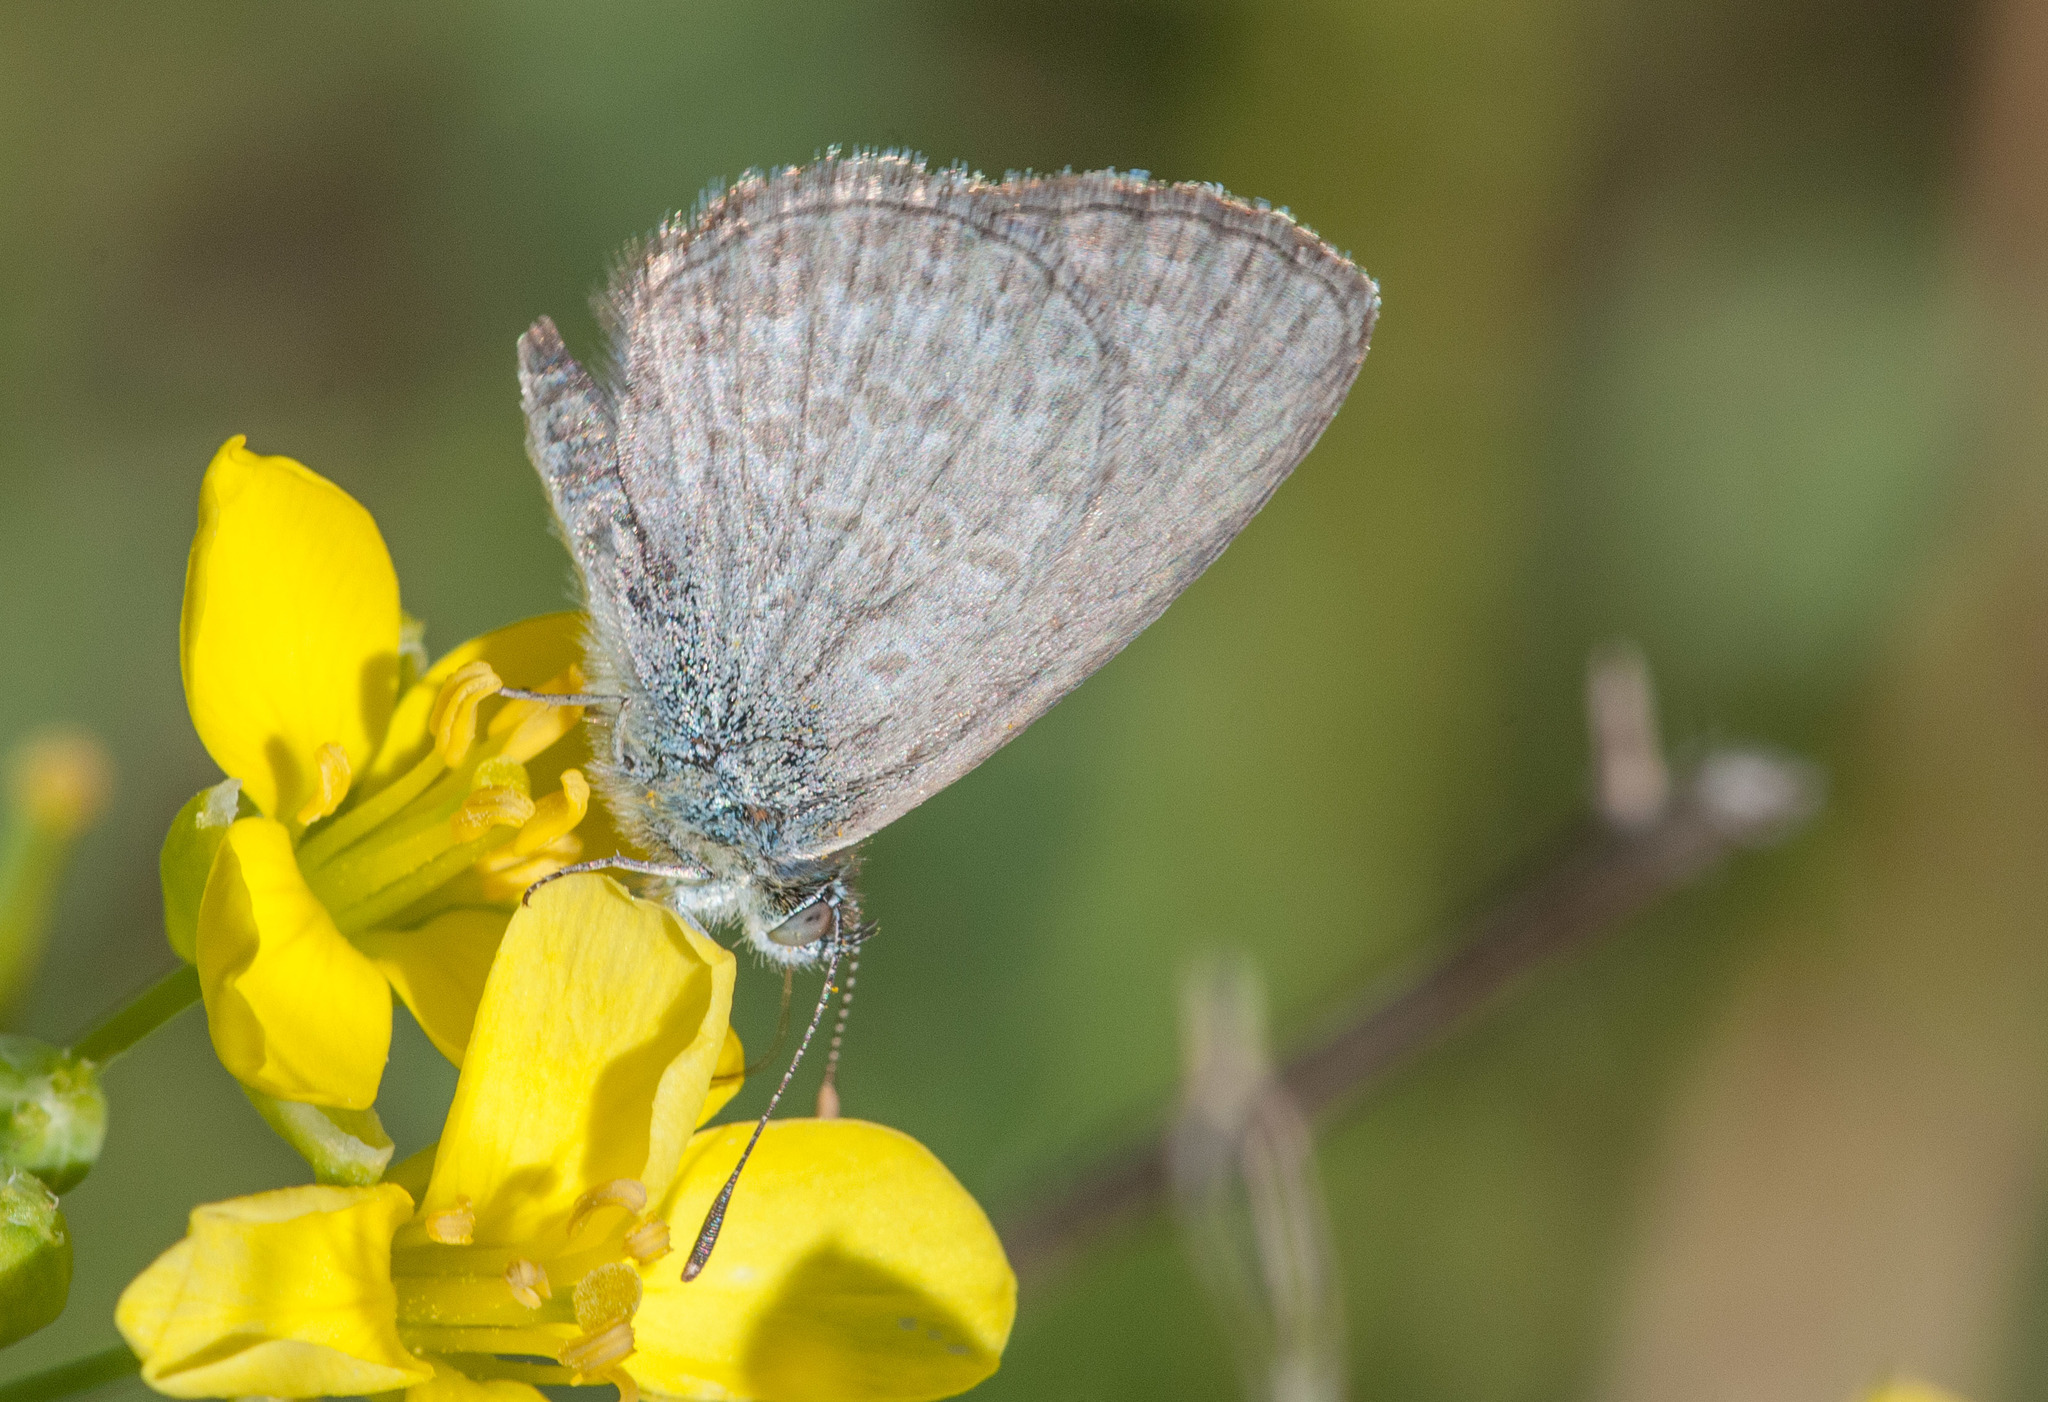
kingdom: Animalia
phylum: Arthropoda
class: Insecta
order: Lepidoptera
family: Lycaenidae
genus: Zizina
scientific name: Zizina labradus
